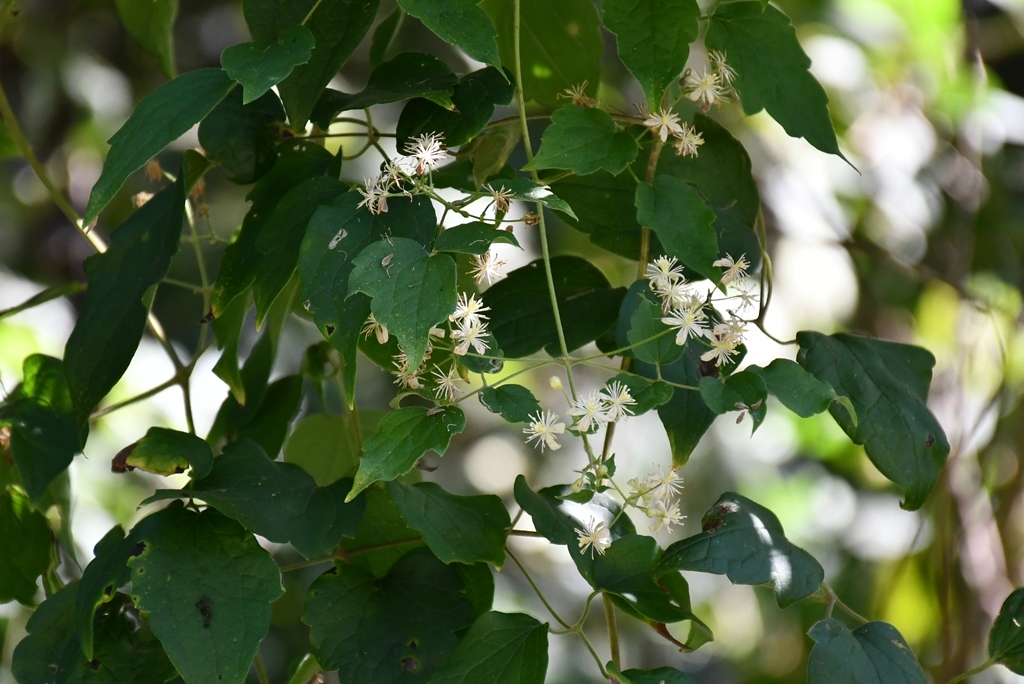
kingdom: Plantae
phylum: Tracheophyta
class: Magnoliopsida
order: Ranunculales
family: Ranunculaceae
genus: Clematis
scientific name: Clematis dioica
